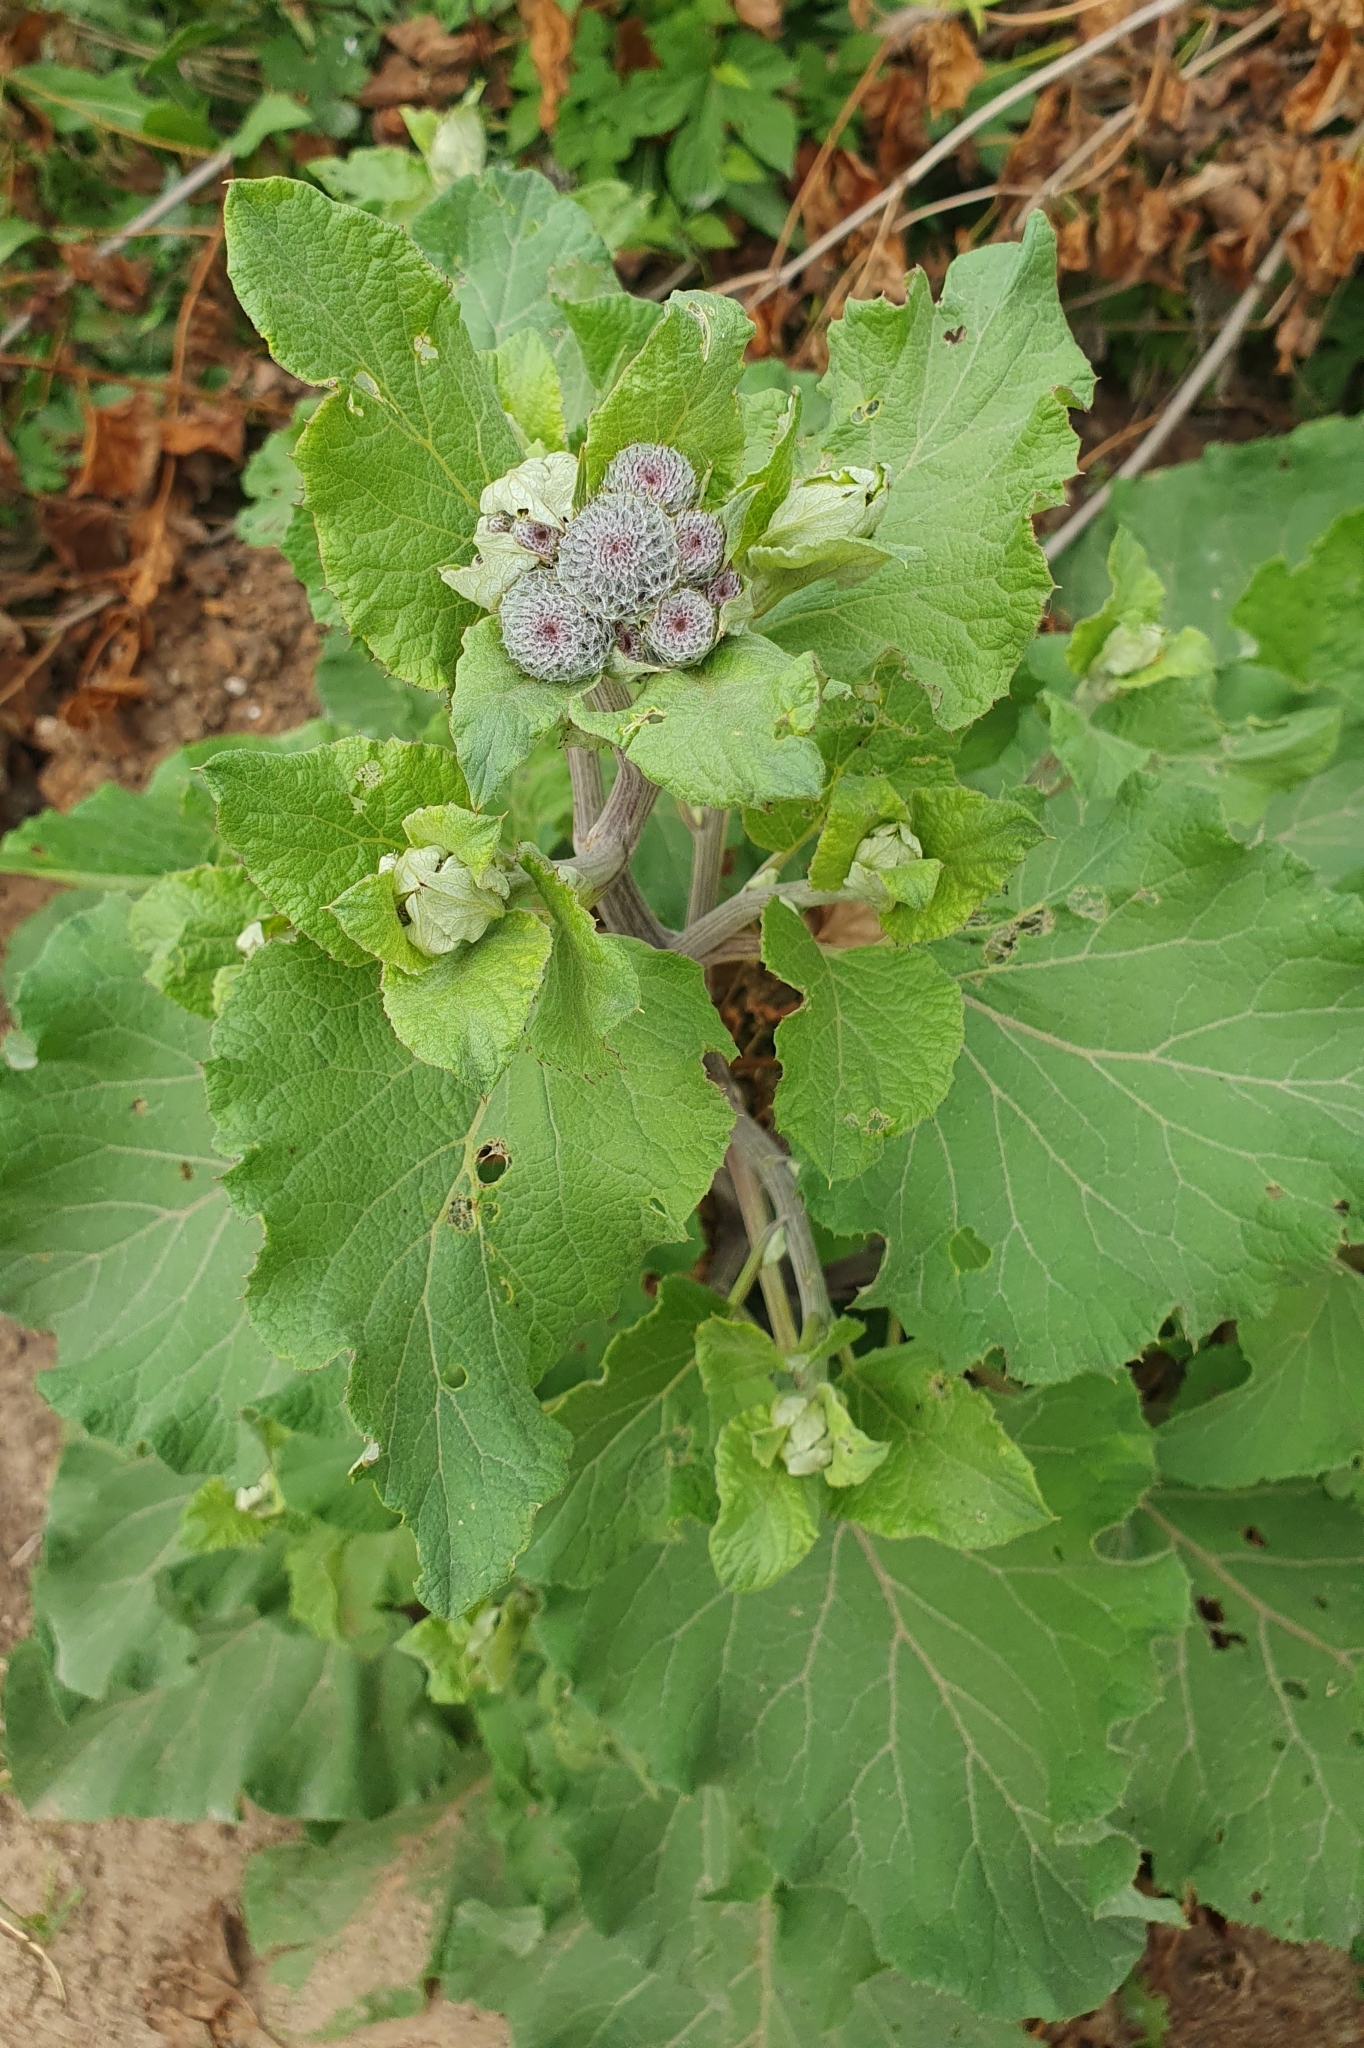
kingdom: Plantae
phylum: Tracheophyta
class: Magnoliopsida
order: Asterales
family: Asteraceae
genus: Arctium
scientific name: Arctium tomentosum
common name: Woolly burdock
